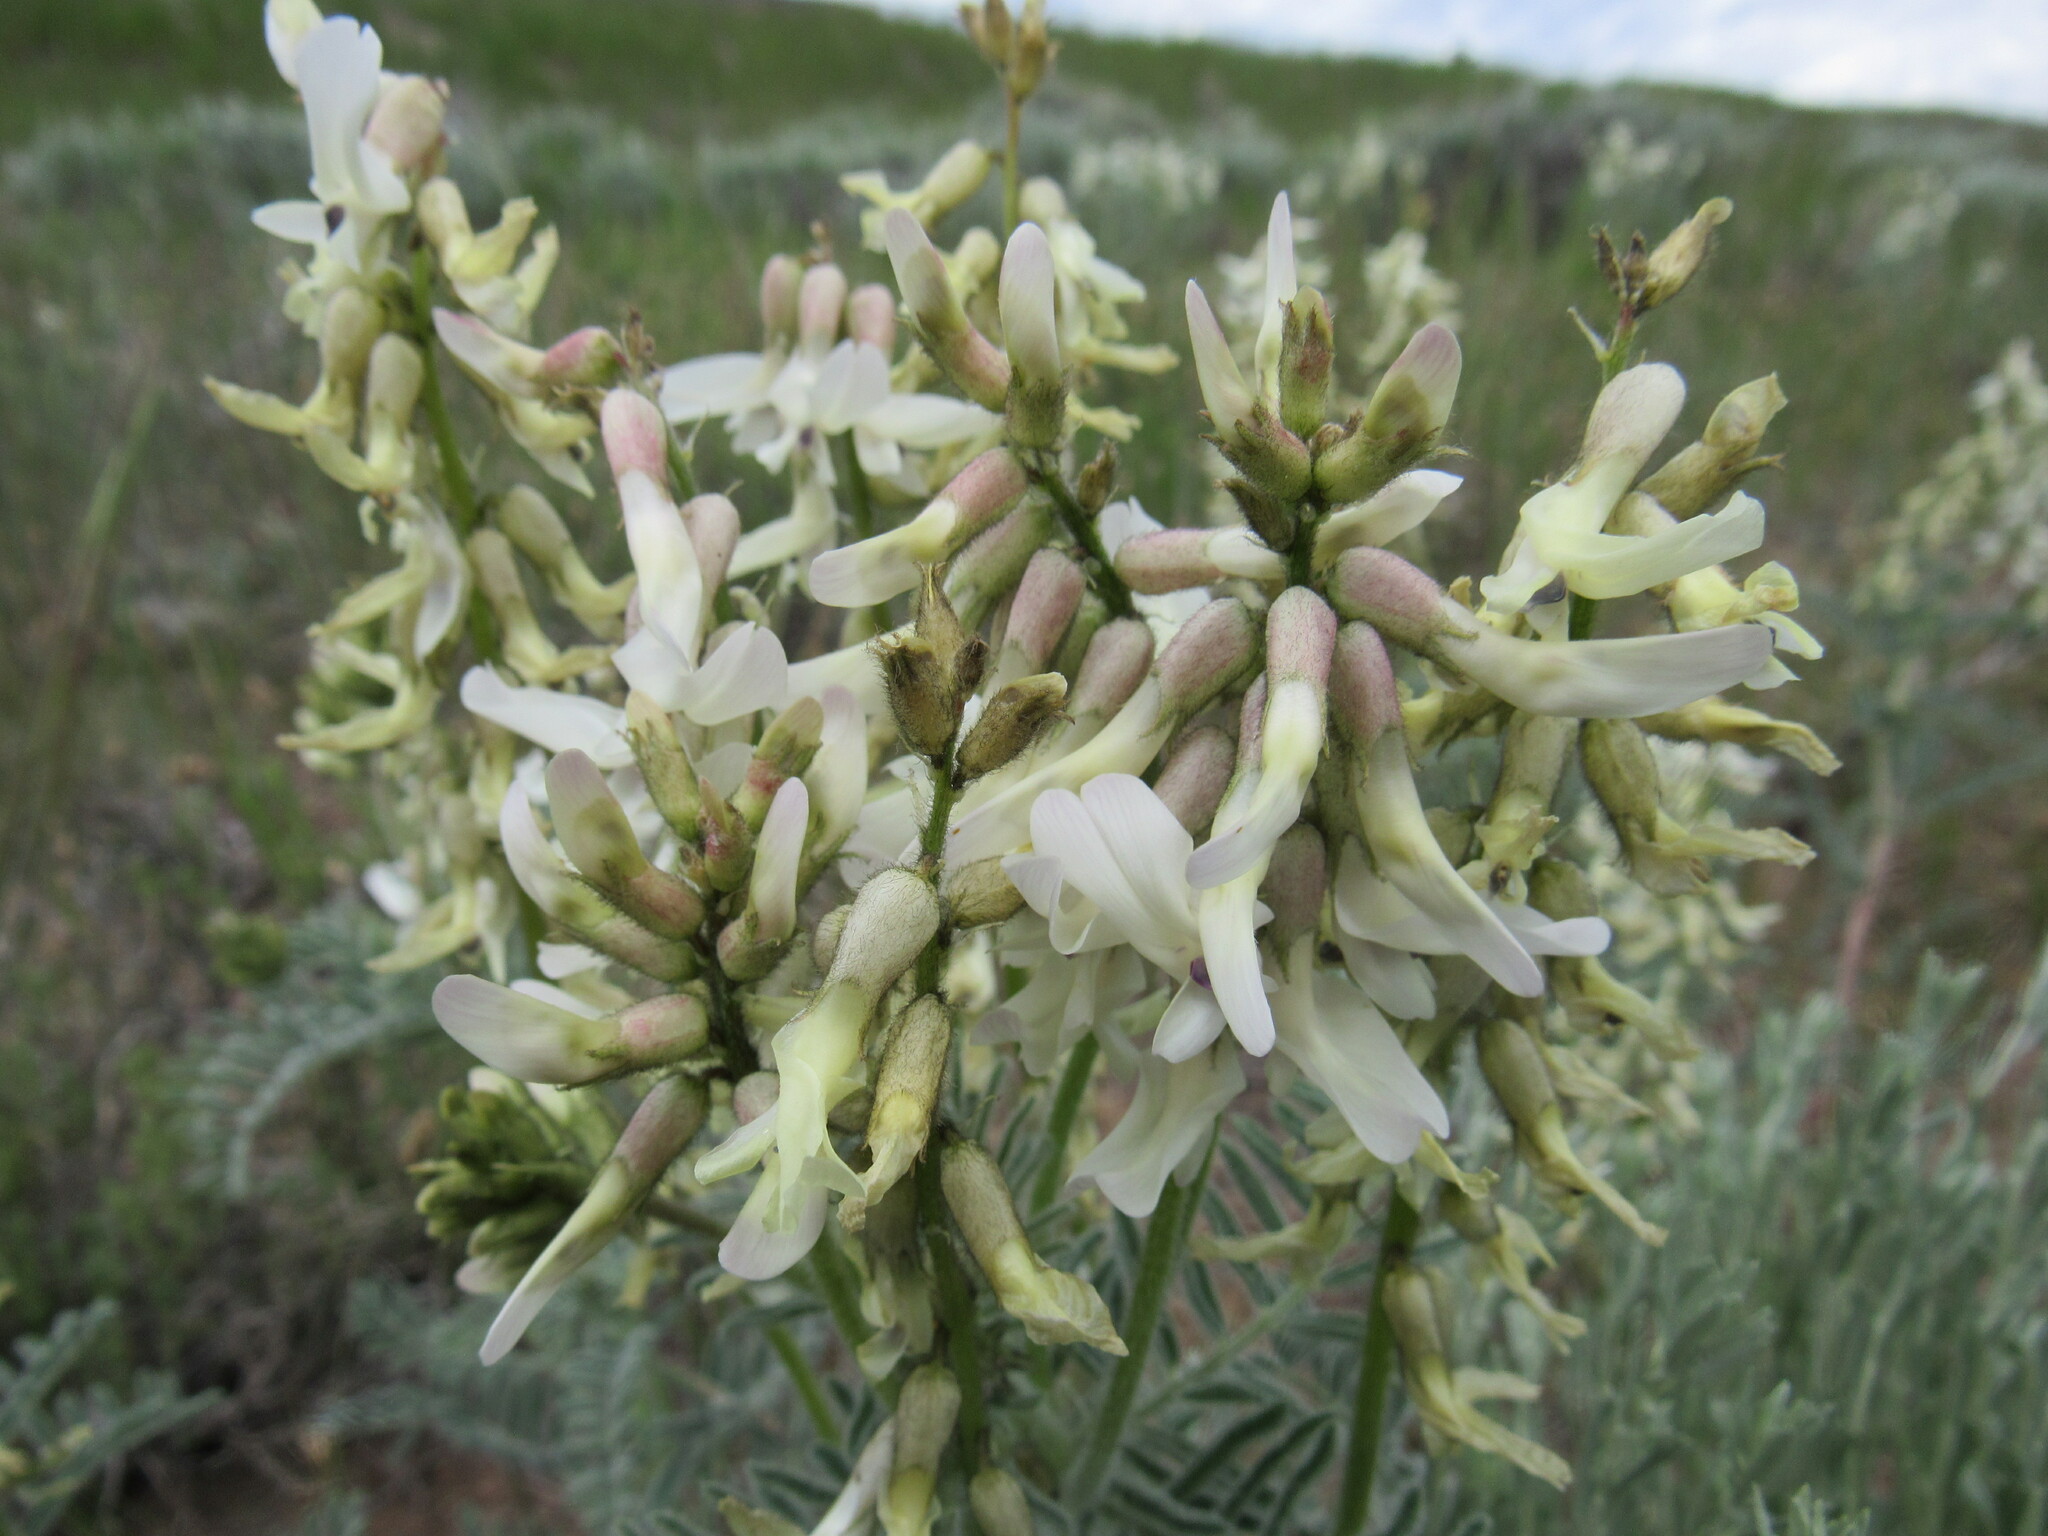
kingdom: Plantae
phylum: Tracheophyta
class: Magnoliopsida
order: Fabales
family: Fabaceae
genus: Astragalus
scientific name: Astragalus drummondii
